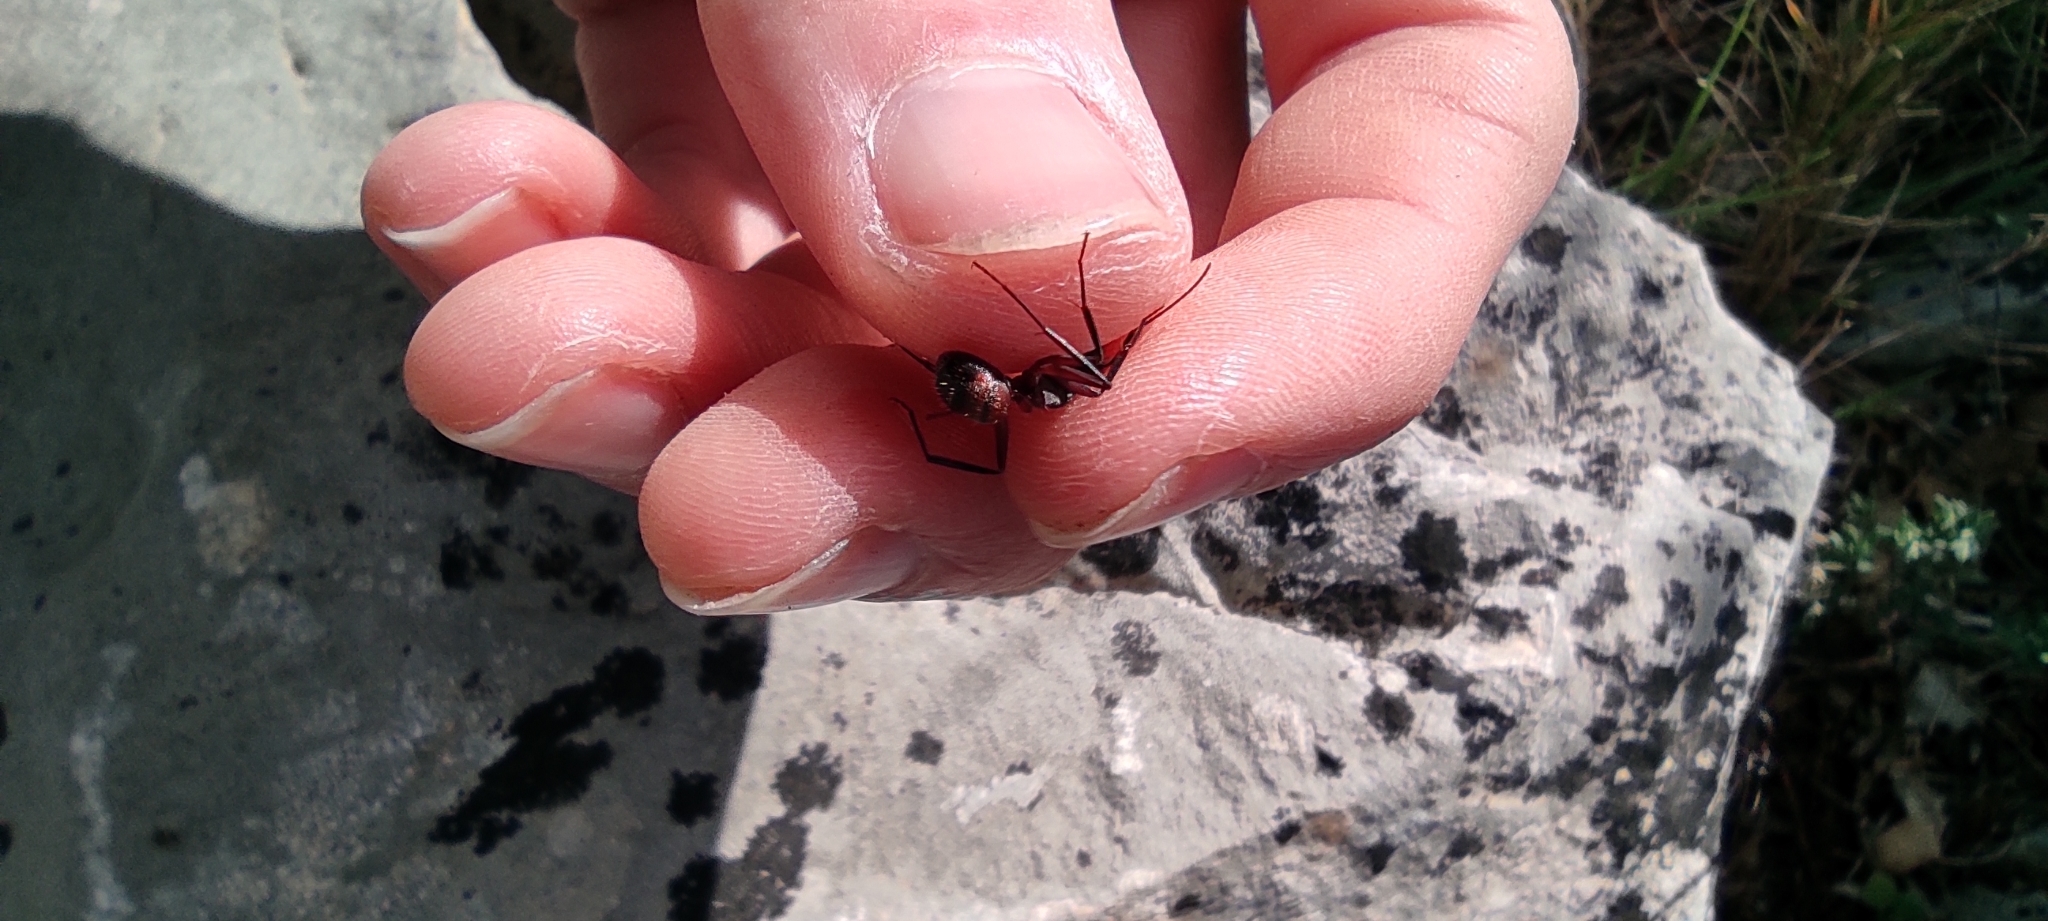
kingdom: Animalia
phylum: Arthropoda
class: Insecta
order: Hymenoptera
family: Formicidae
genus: Camponotus
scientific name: Camponotus cruentatus
